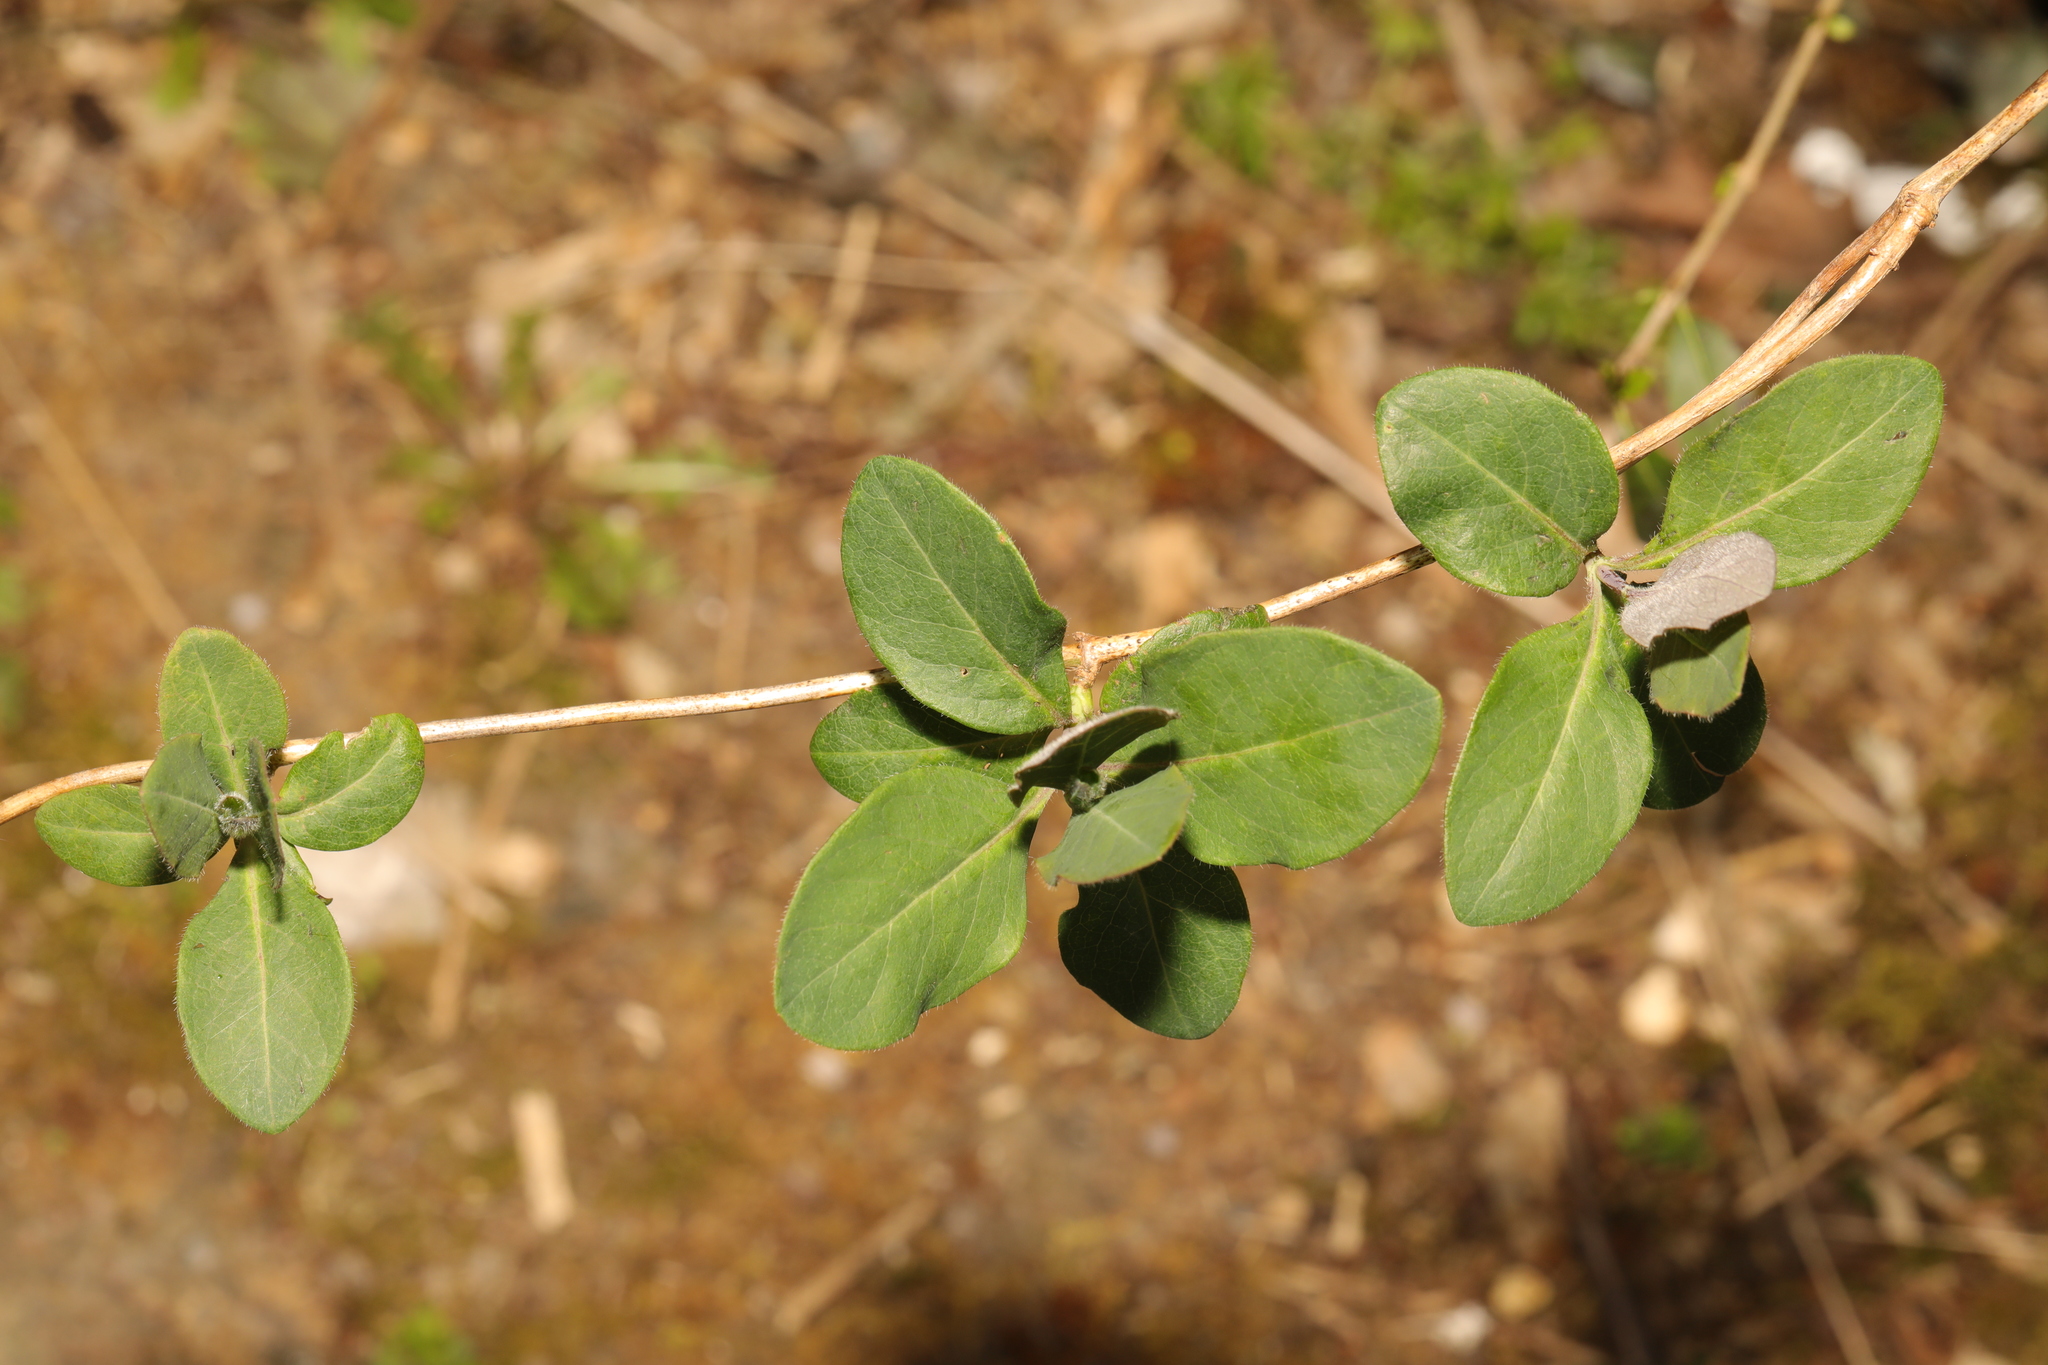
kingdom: Plantae
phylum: Tracheophyta
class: Magnoliopsida
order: Dipsacales
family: Caprifoliaceae
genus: Lonicera
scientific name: Lonicera periclymenum
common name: European honeysuckle
